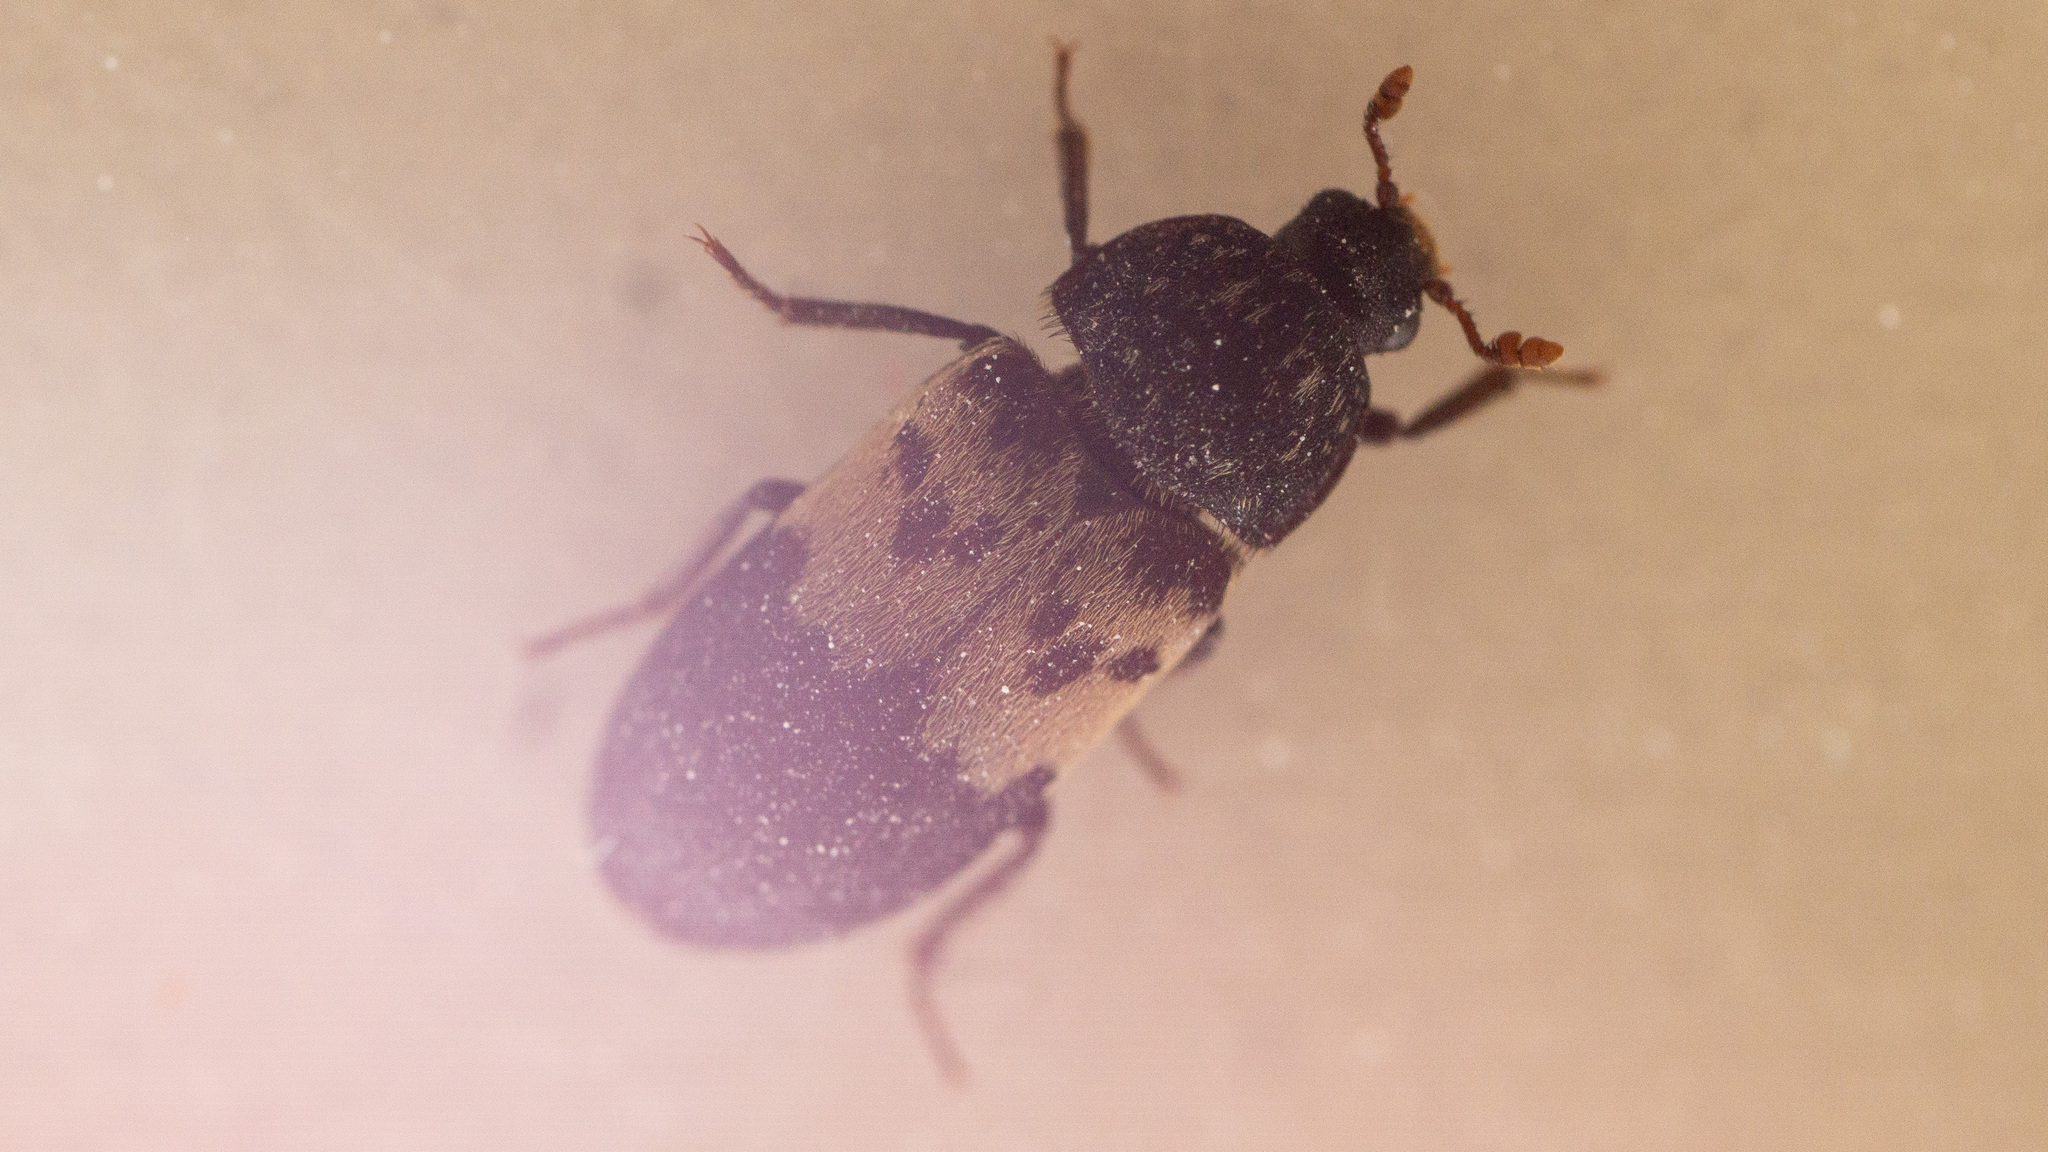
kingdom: Animalia
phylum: Arthropoda
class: Insecta
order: Coleoptera
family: Dermestidae
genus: Dermestes
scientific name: Dermestes lardarius
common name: Larder beetle
